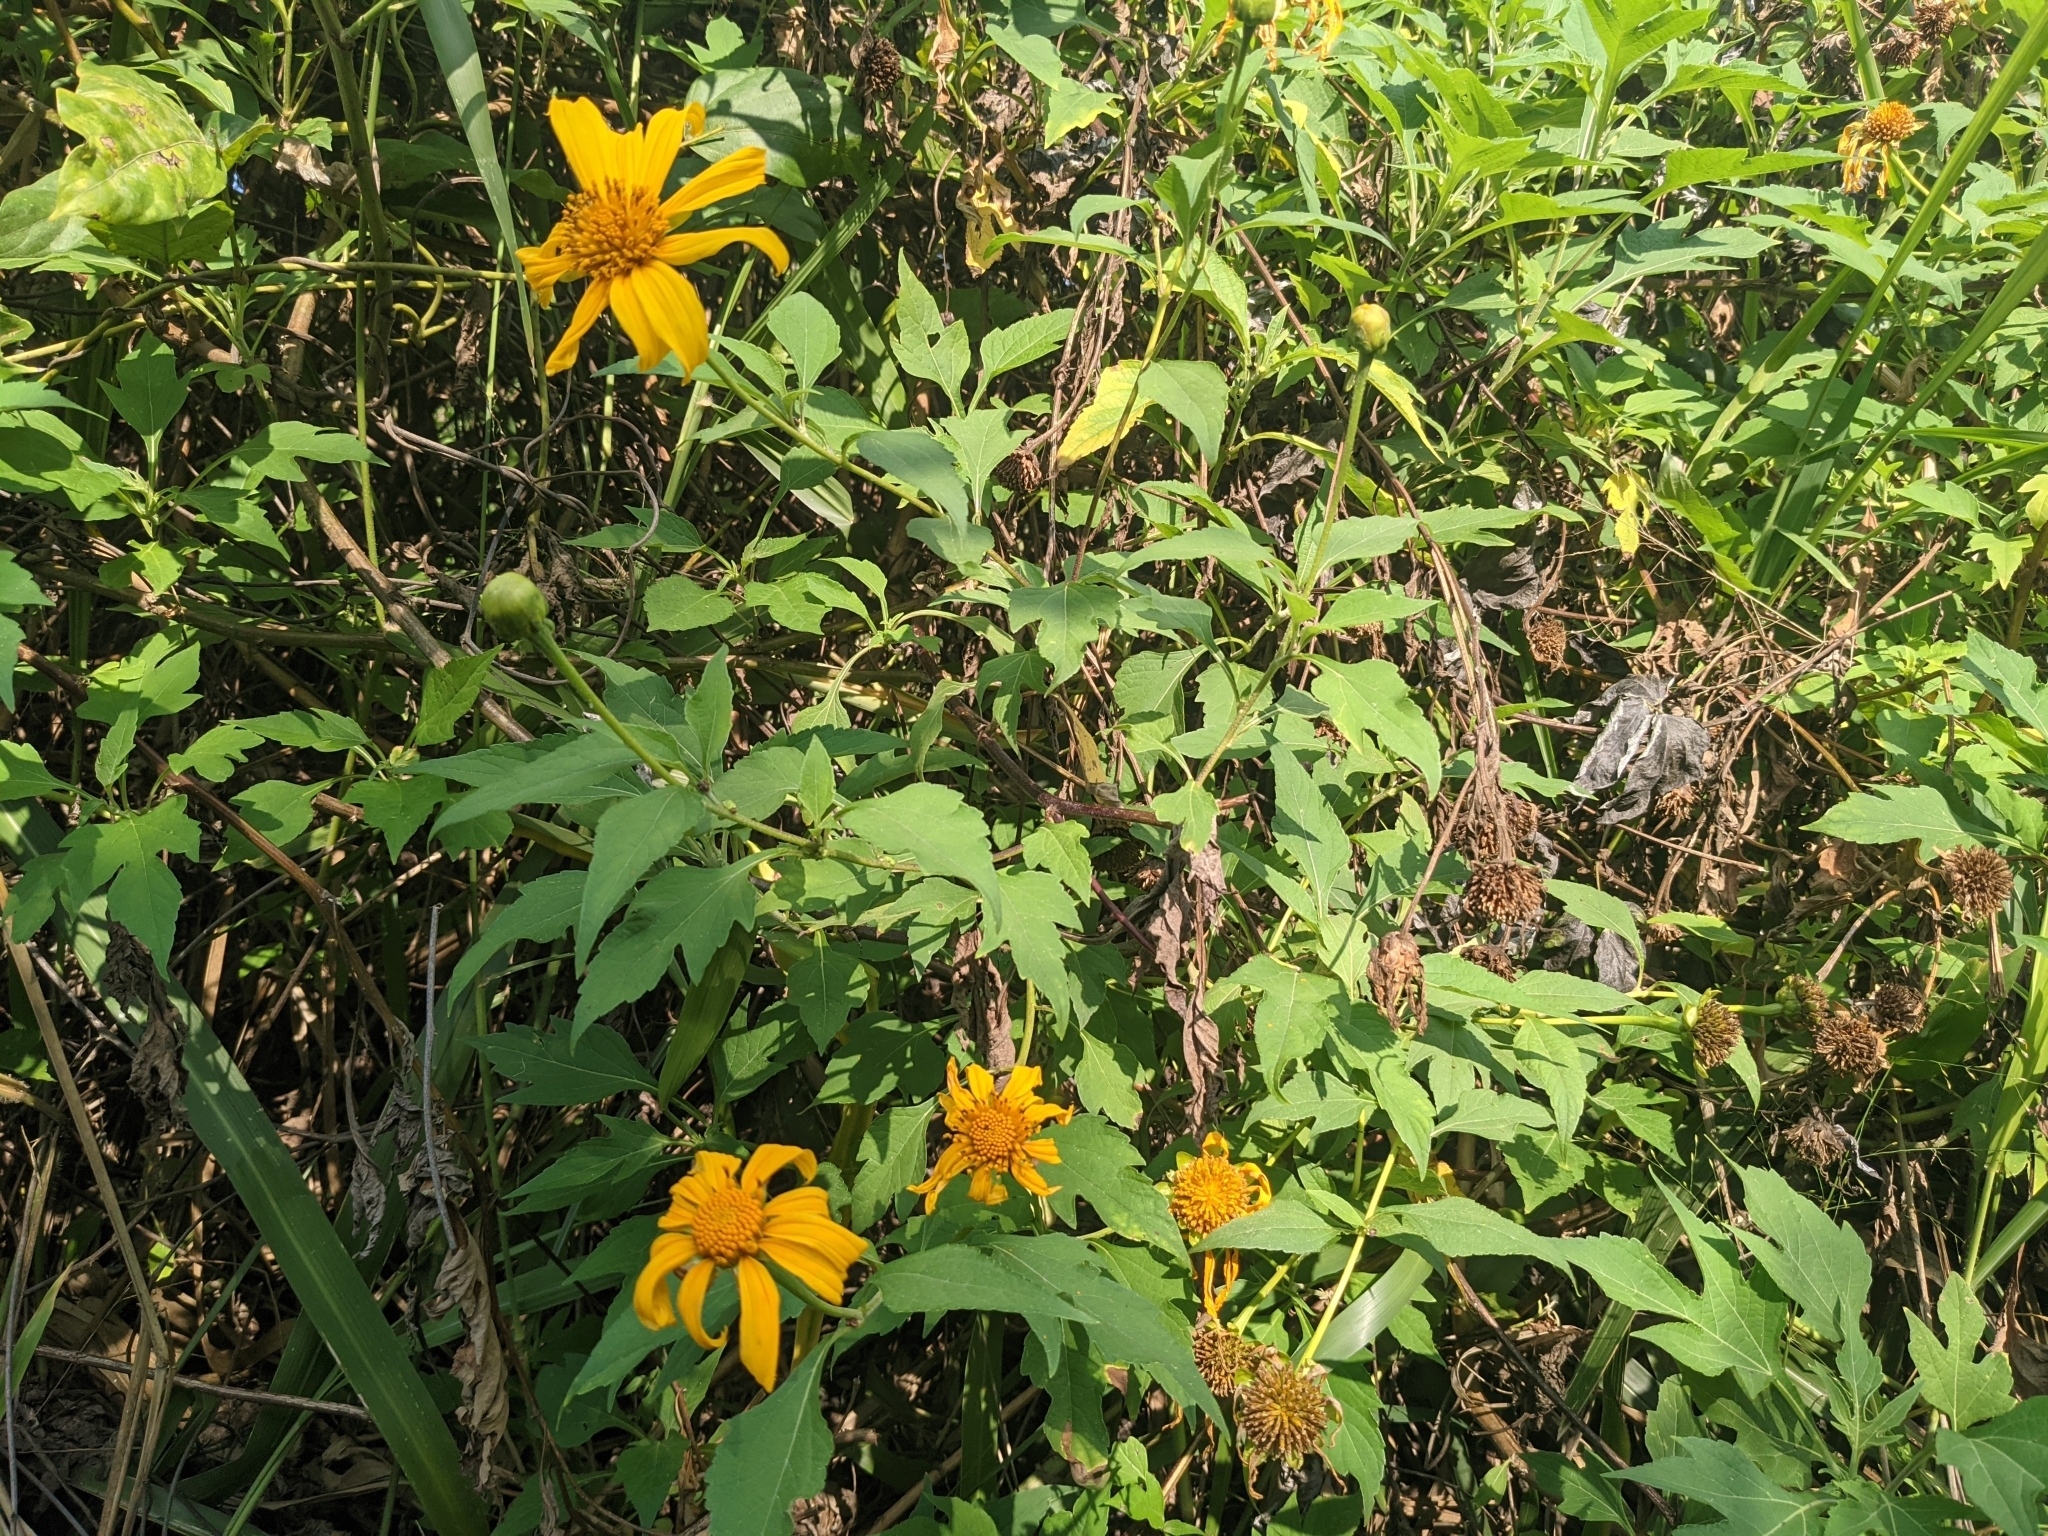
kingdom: Plantae
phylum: Tracheophyta
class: Magnoliopsida
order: Asterales
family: Asteraceae
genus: Tithonia
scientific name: Tithonia diversifolia
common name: Tree marigold
